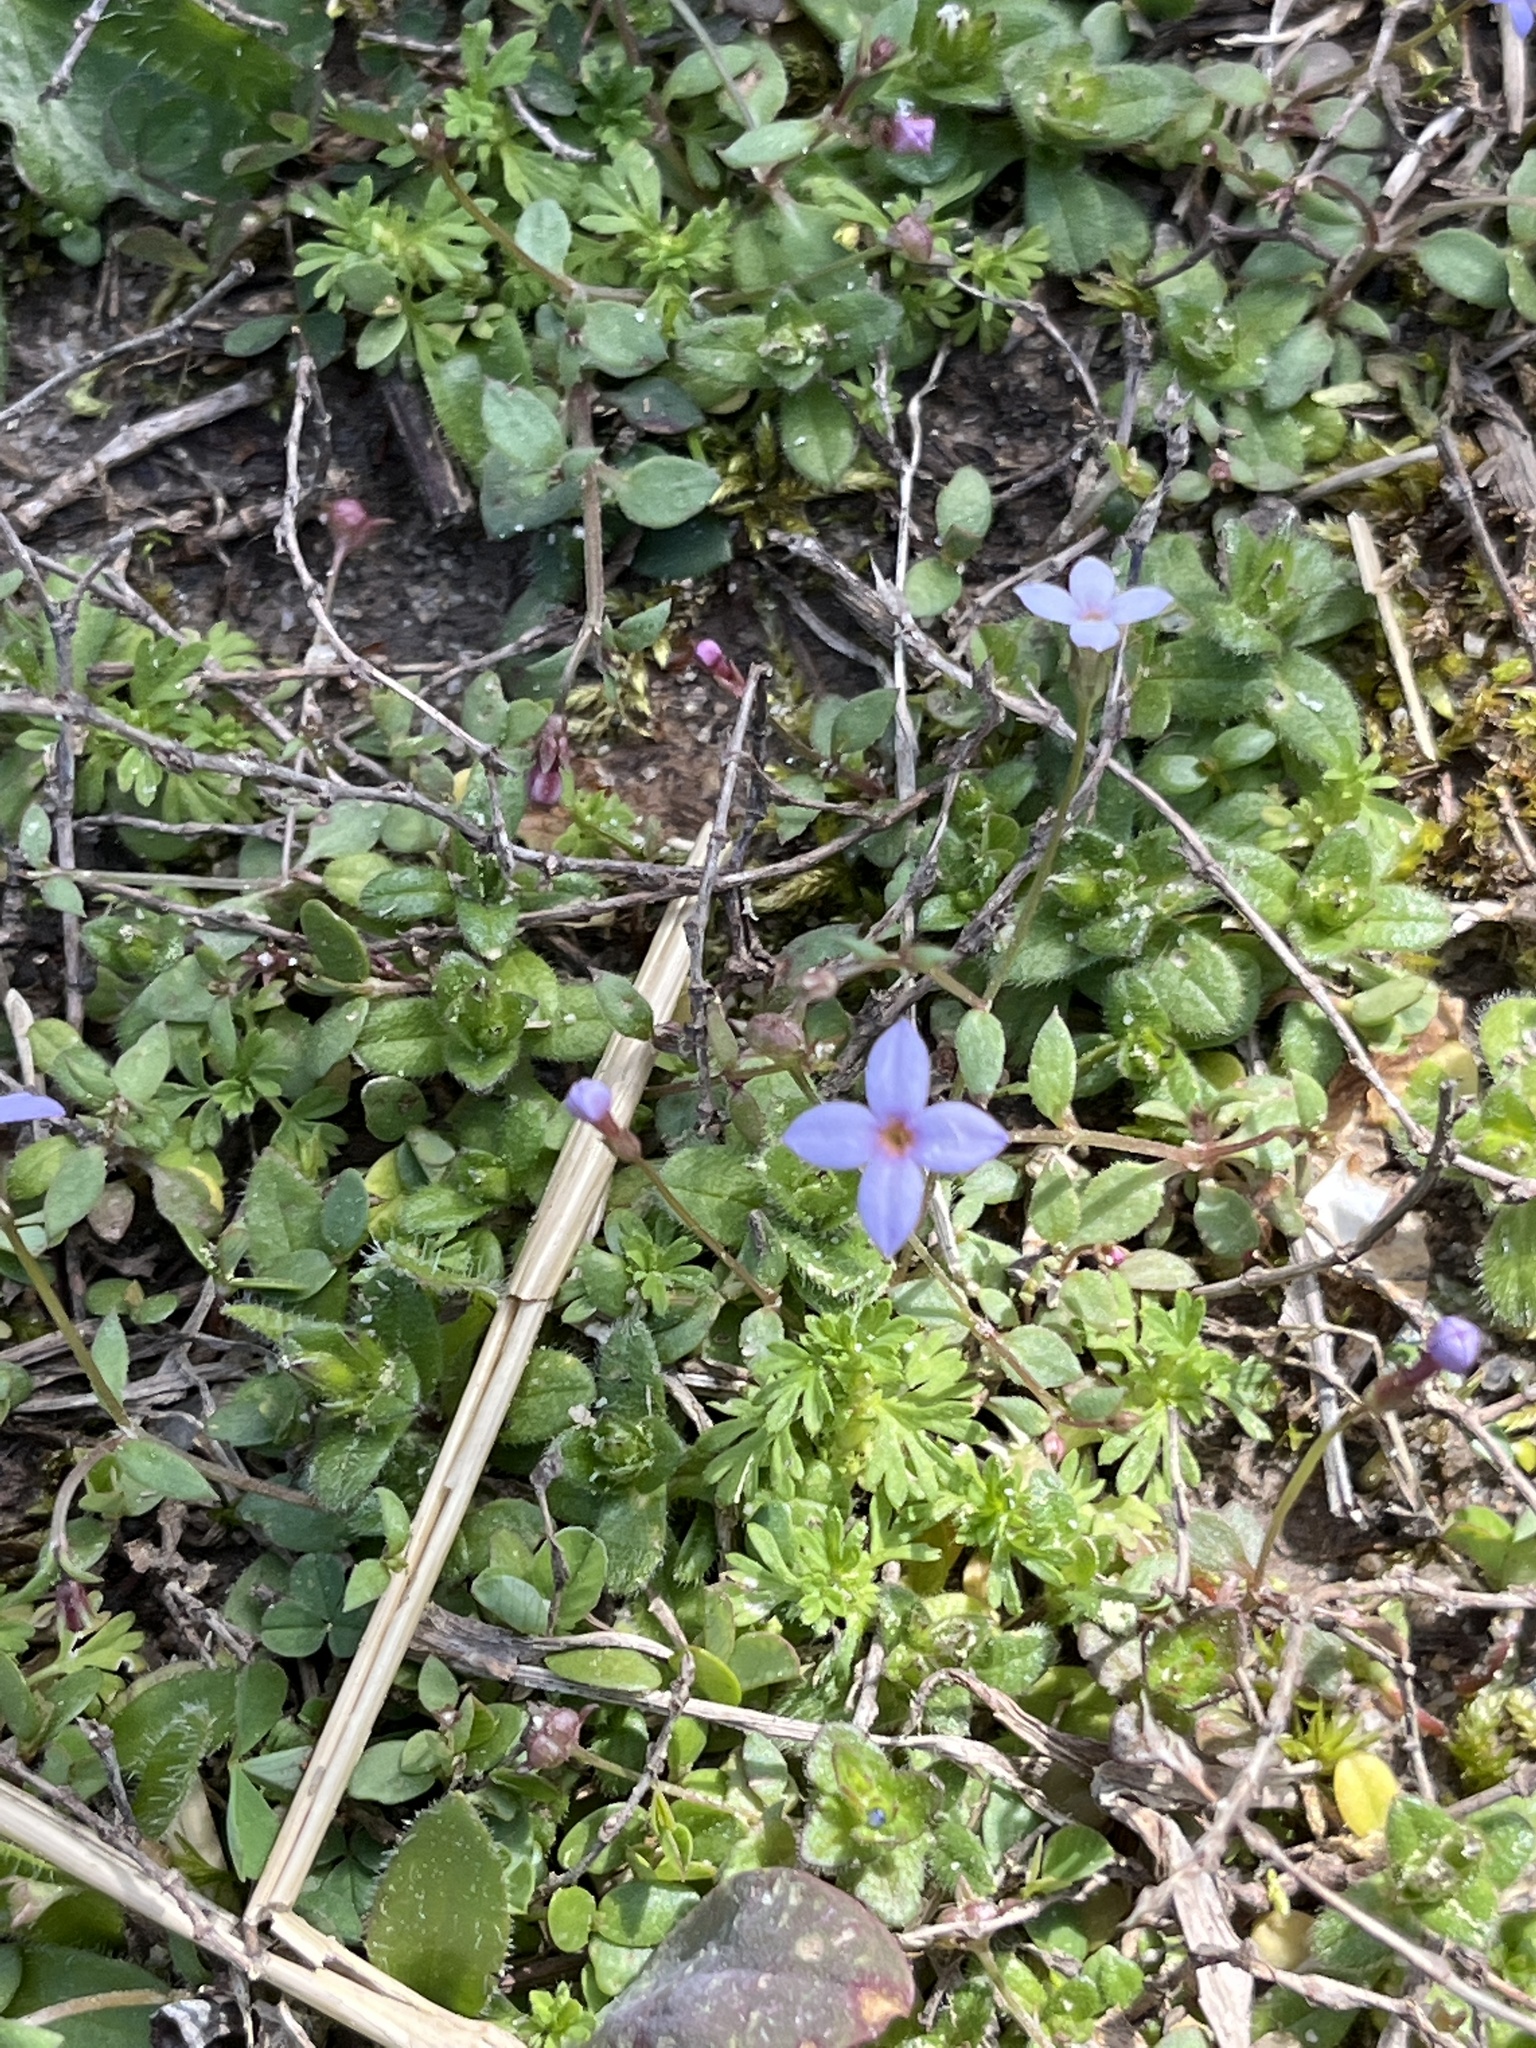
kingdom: Plantae
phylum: Tracheophyta
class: Magnoliopsida
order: Gentianales
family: Rubiaceae
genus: Houstonia
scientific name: Houstonia pusilla
